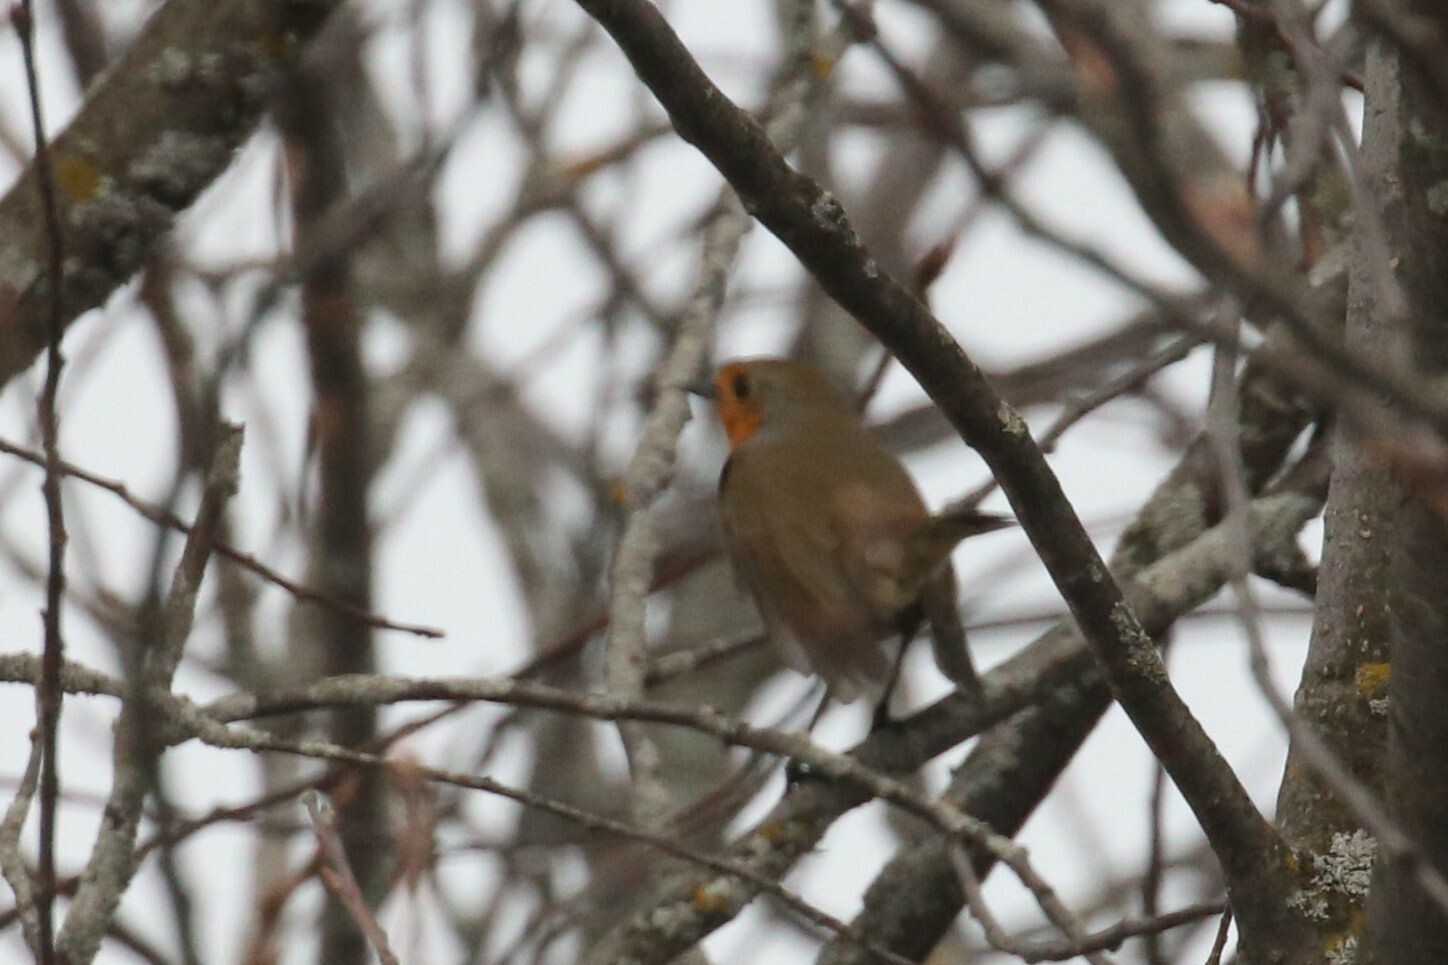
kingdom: Animalia
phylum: Chordata
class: Aves
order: Passeriformes
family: Muscicapidae
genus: Erithacus
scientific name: Erithacus rubecula
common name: European robin
